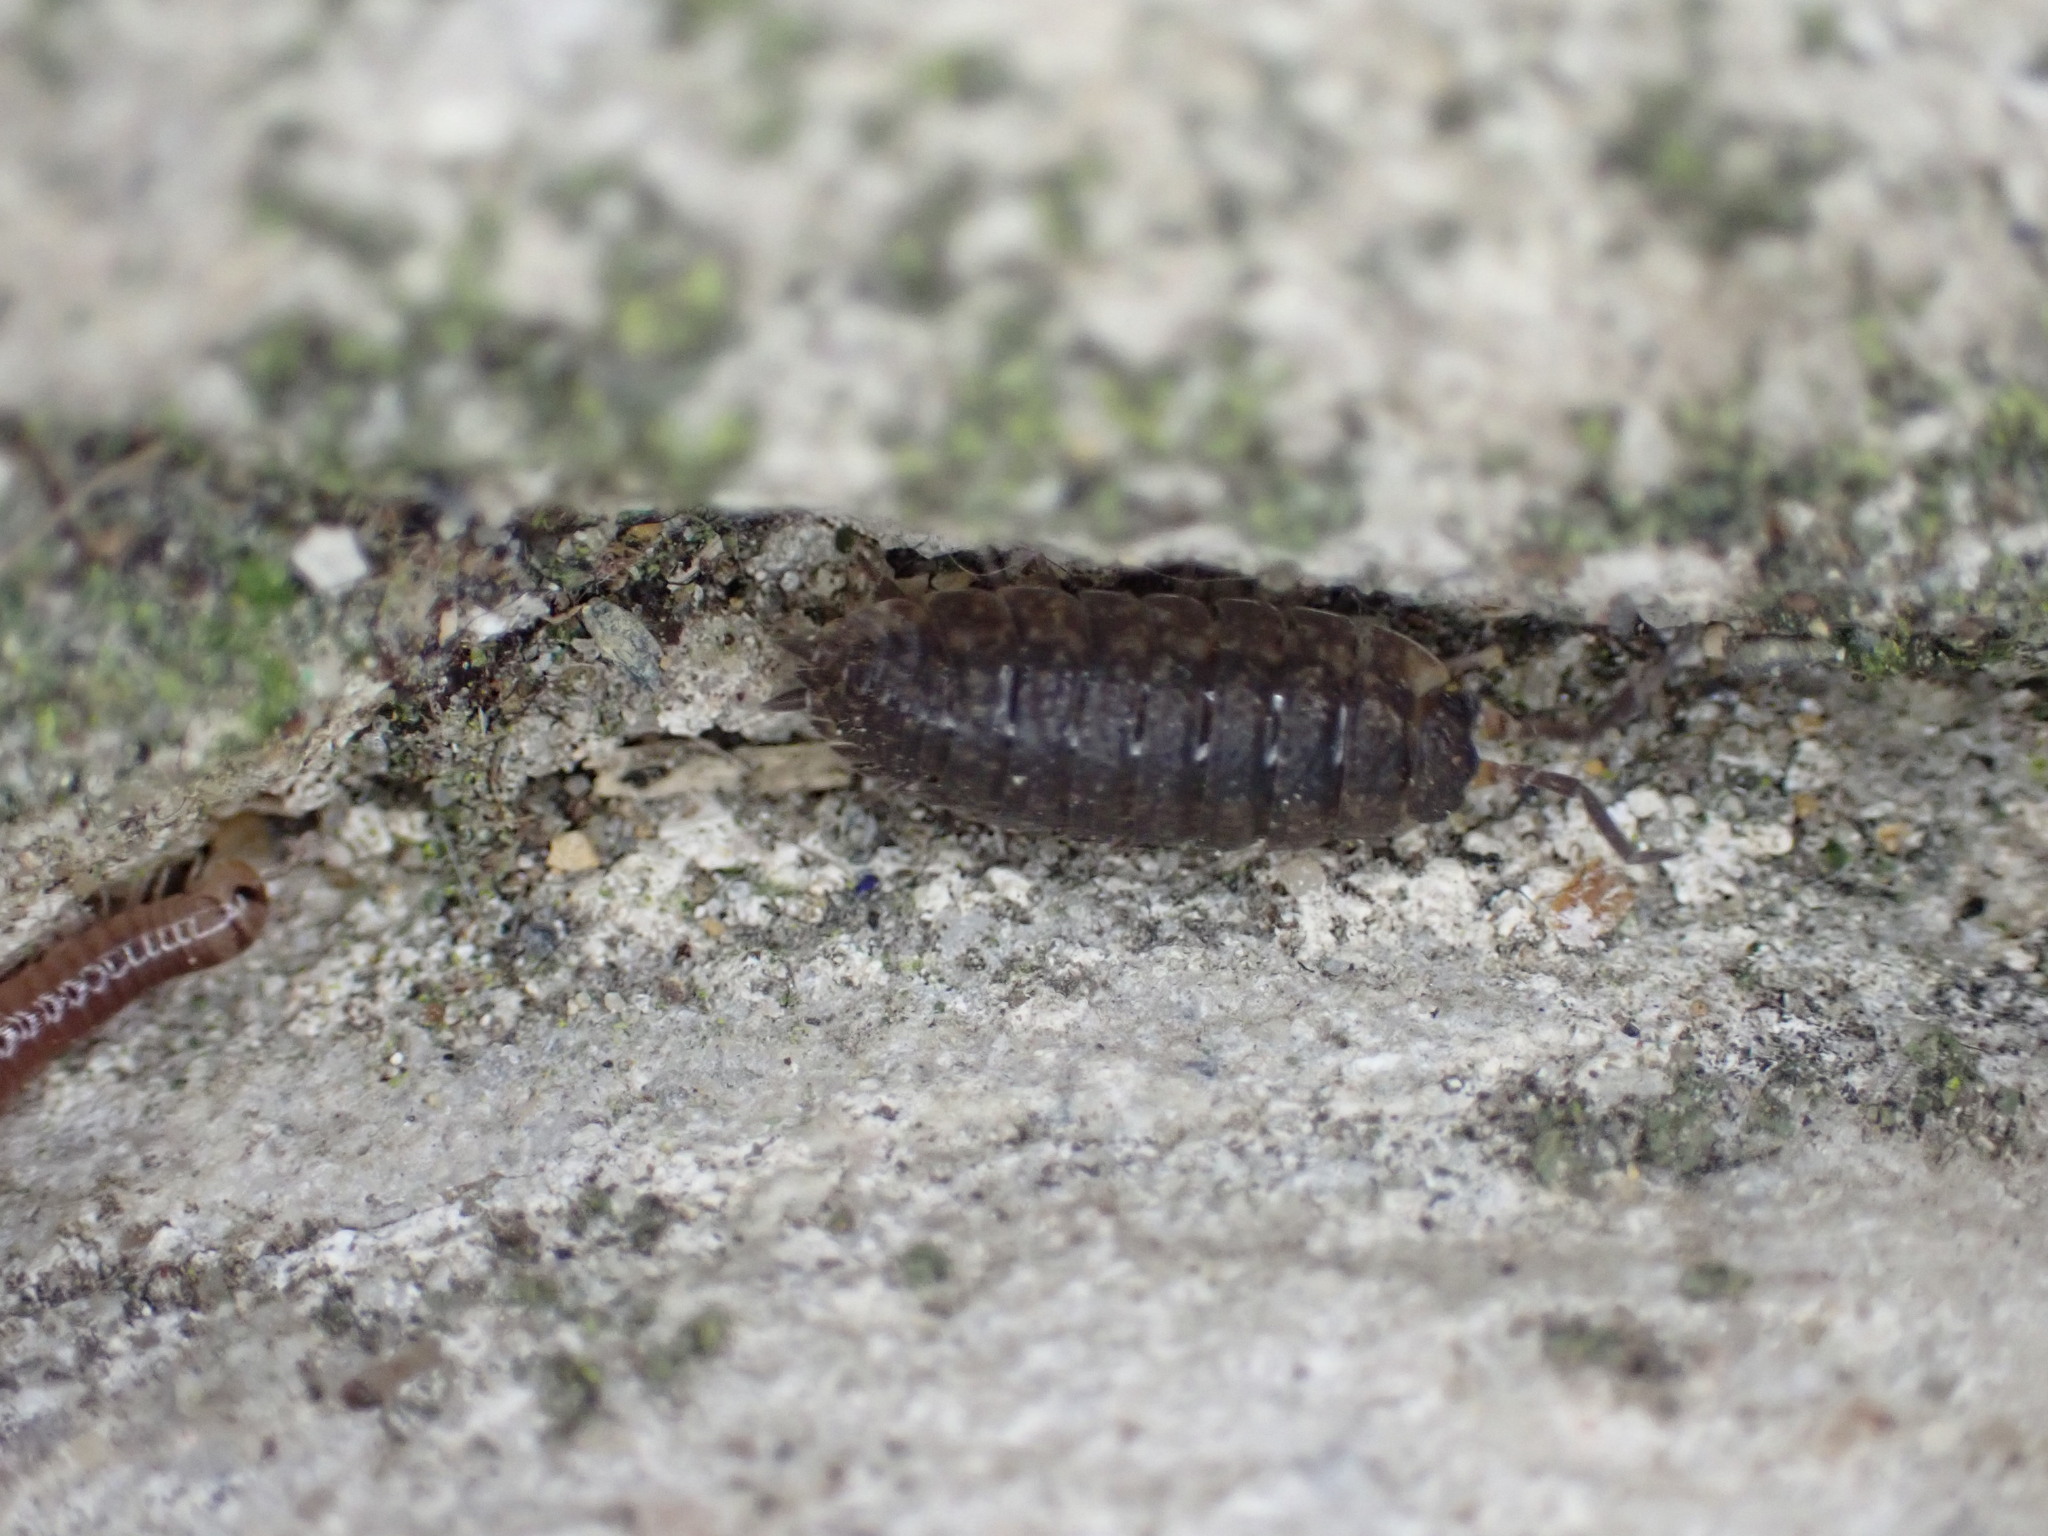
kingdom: Animalia
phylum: Arthropoda
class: Malacostraca
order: Isopoda
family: Porcellionidae
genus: Porcellio
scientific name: Porcellio scaber
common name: Common rough woodlouse
